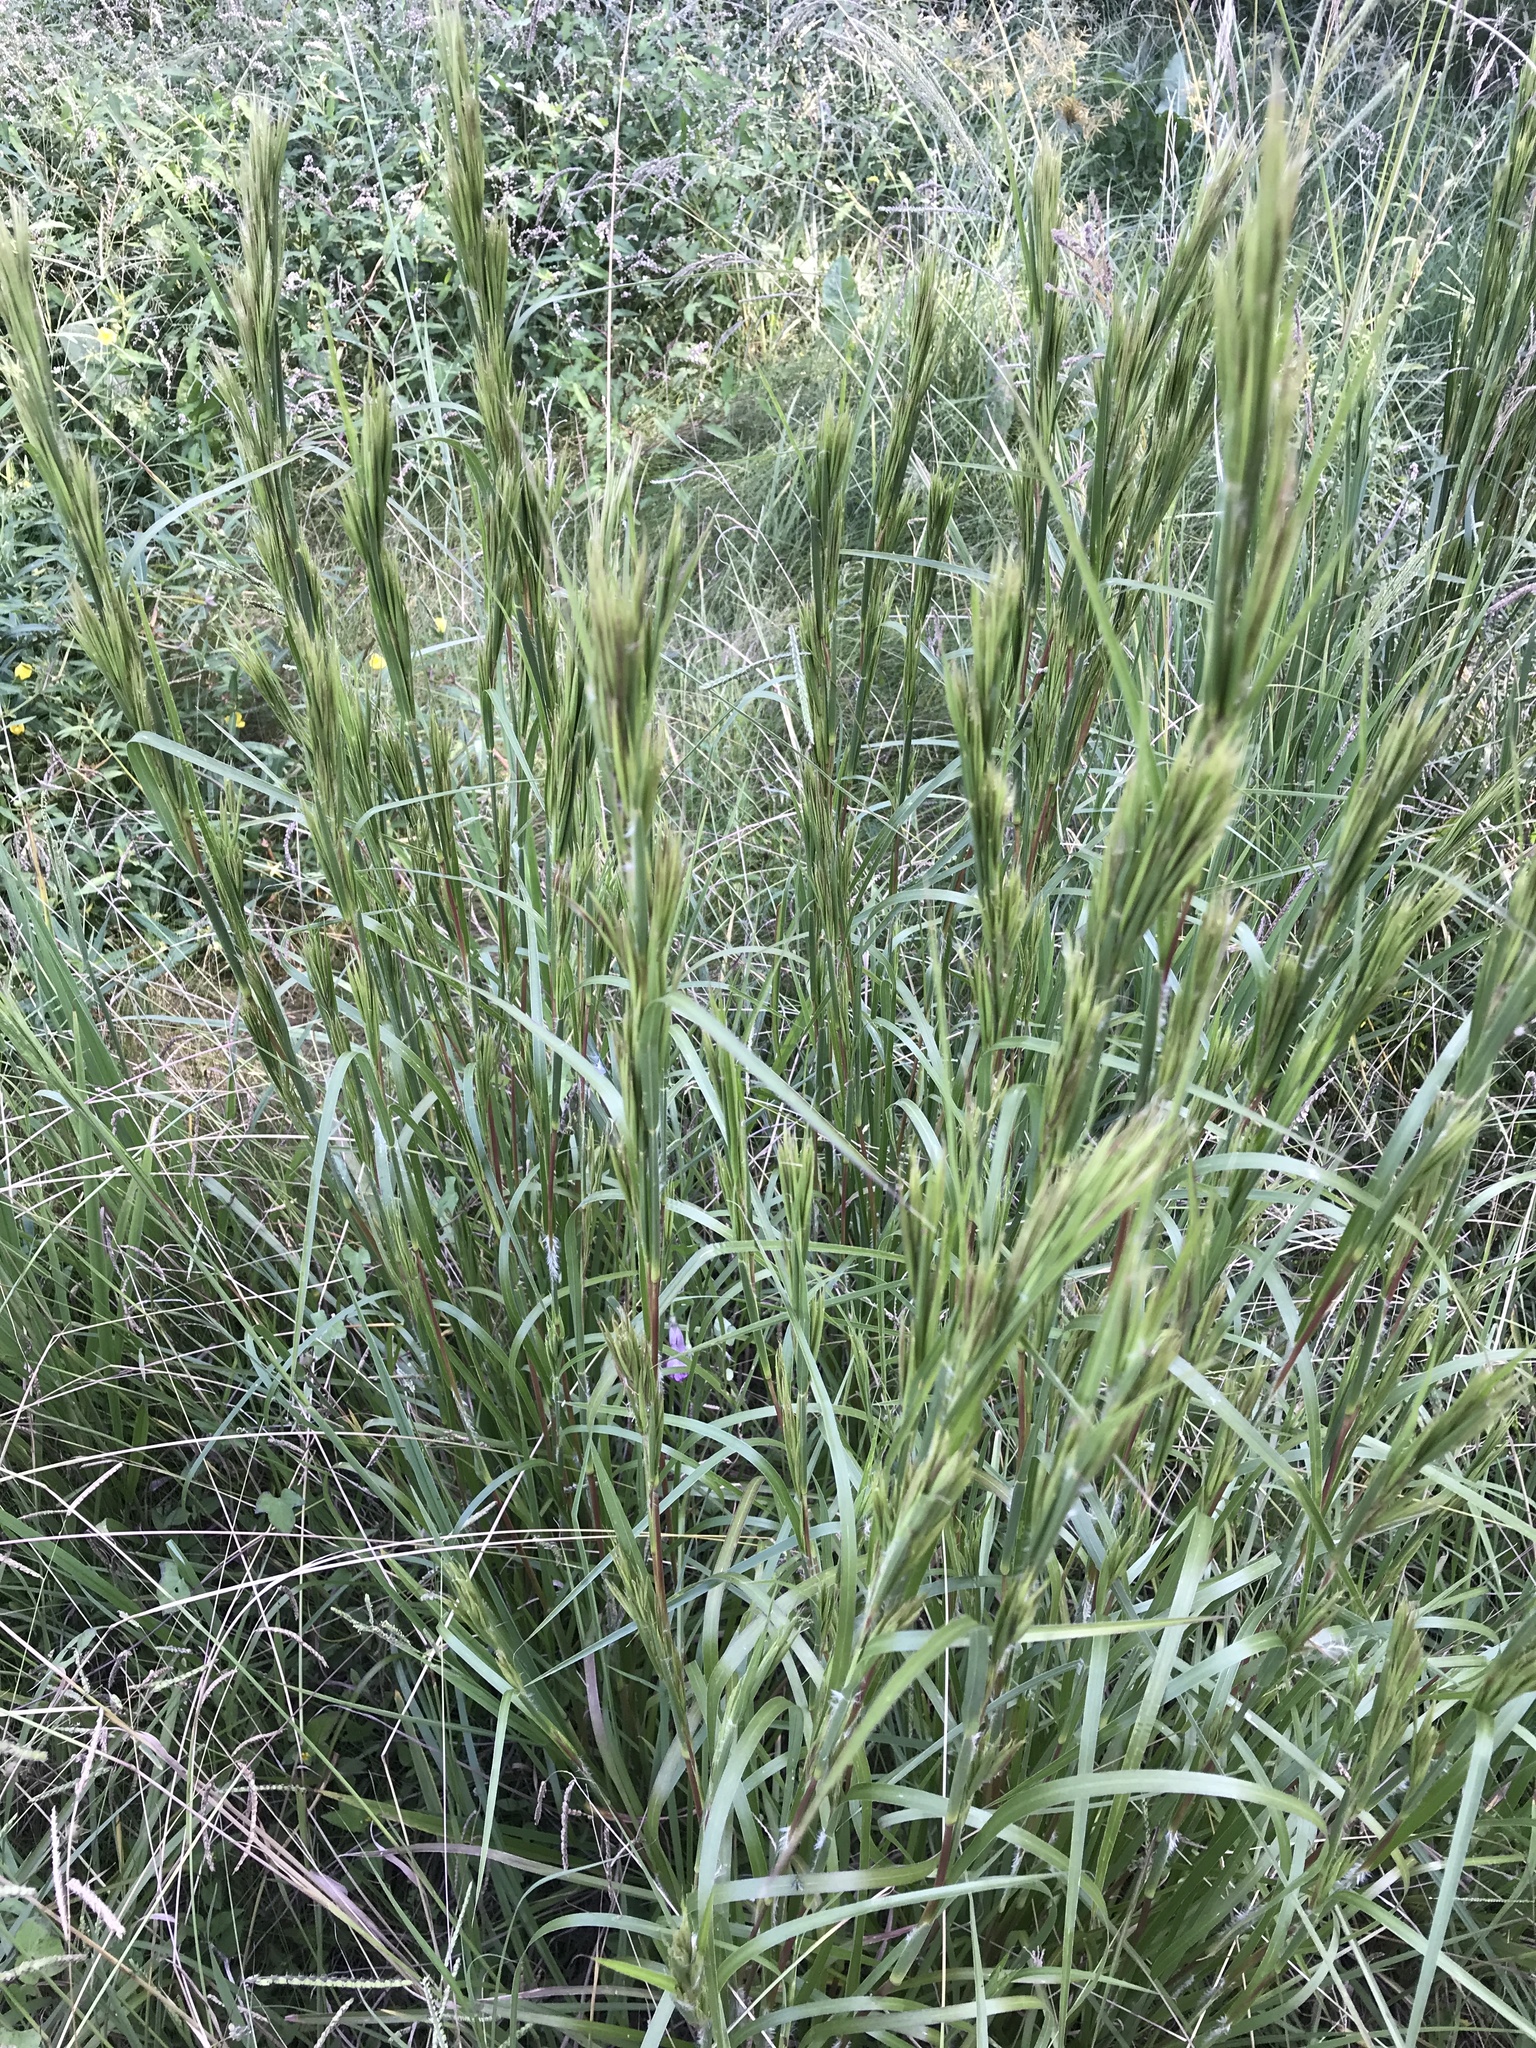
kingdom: Plantae
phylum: Tracheophyta
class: Liliopsida
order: Poales
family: Poaceae
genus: Andropogon
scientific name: Andropogon tenuispatheus
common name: Bushy bluestem
